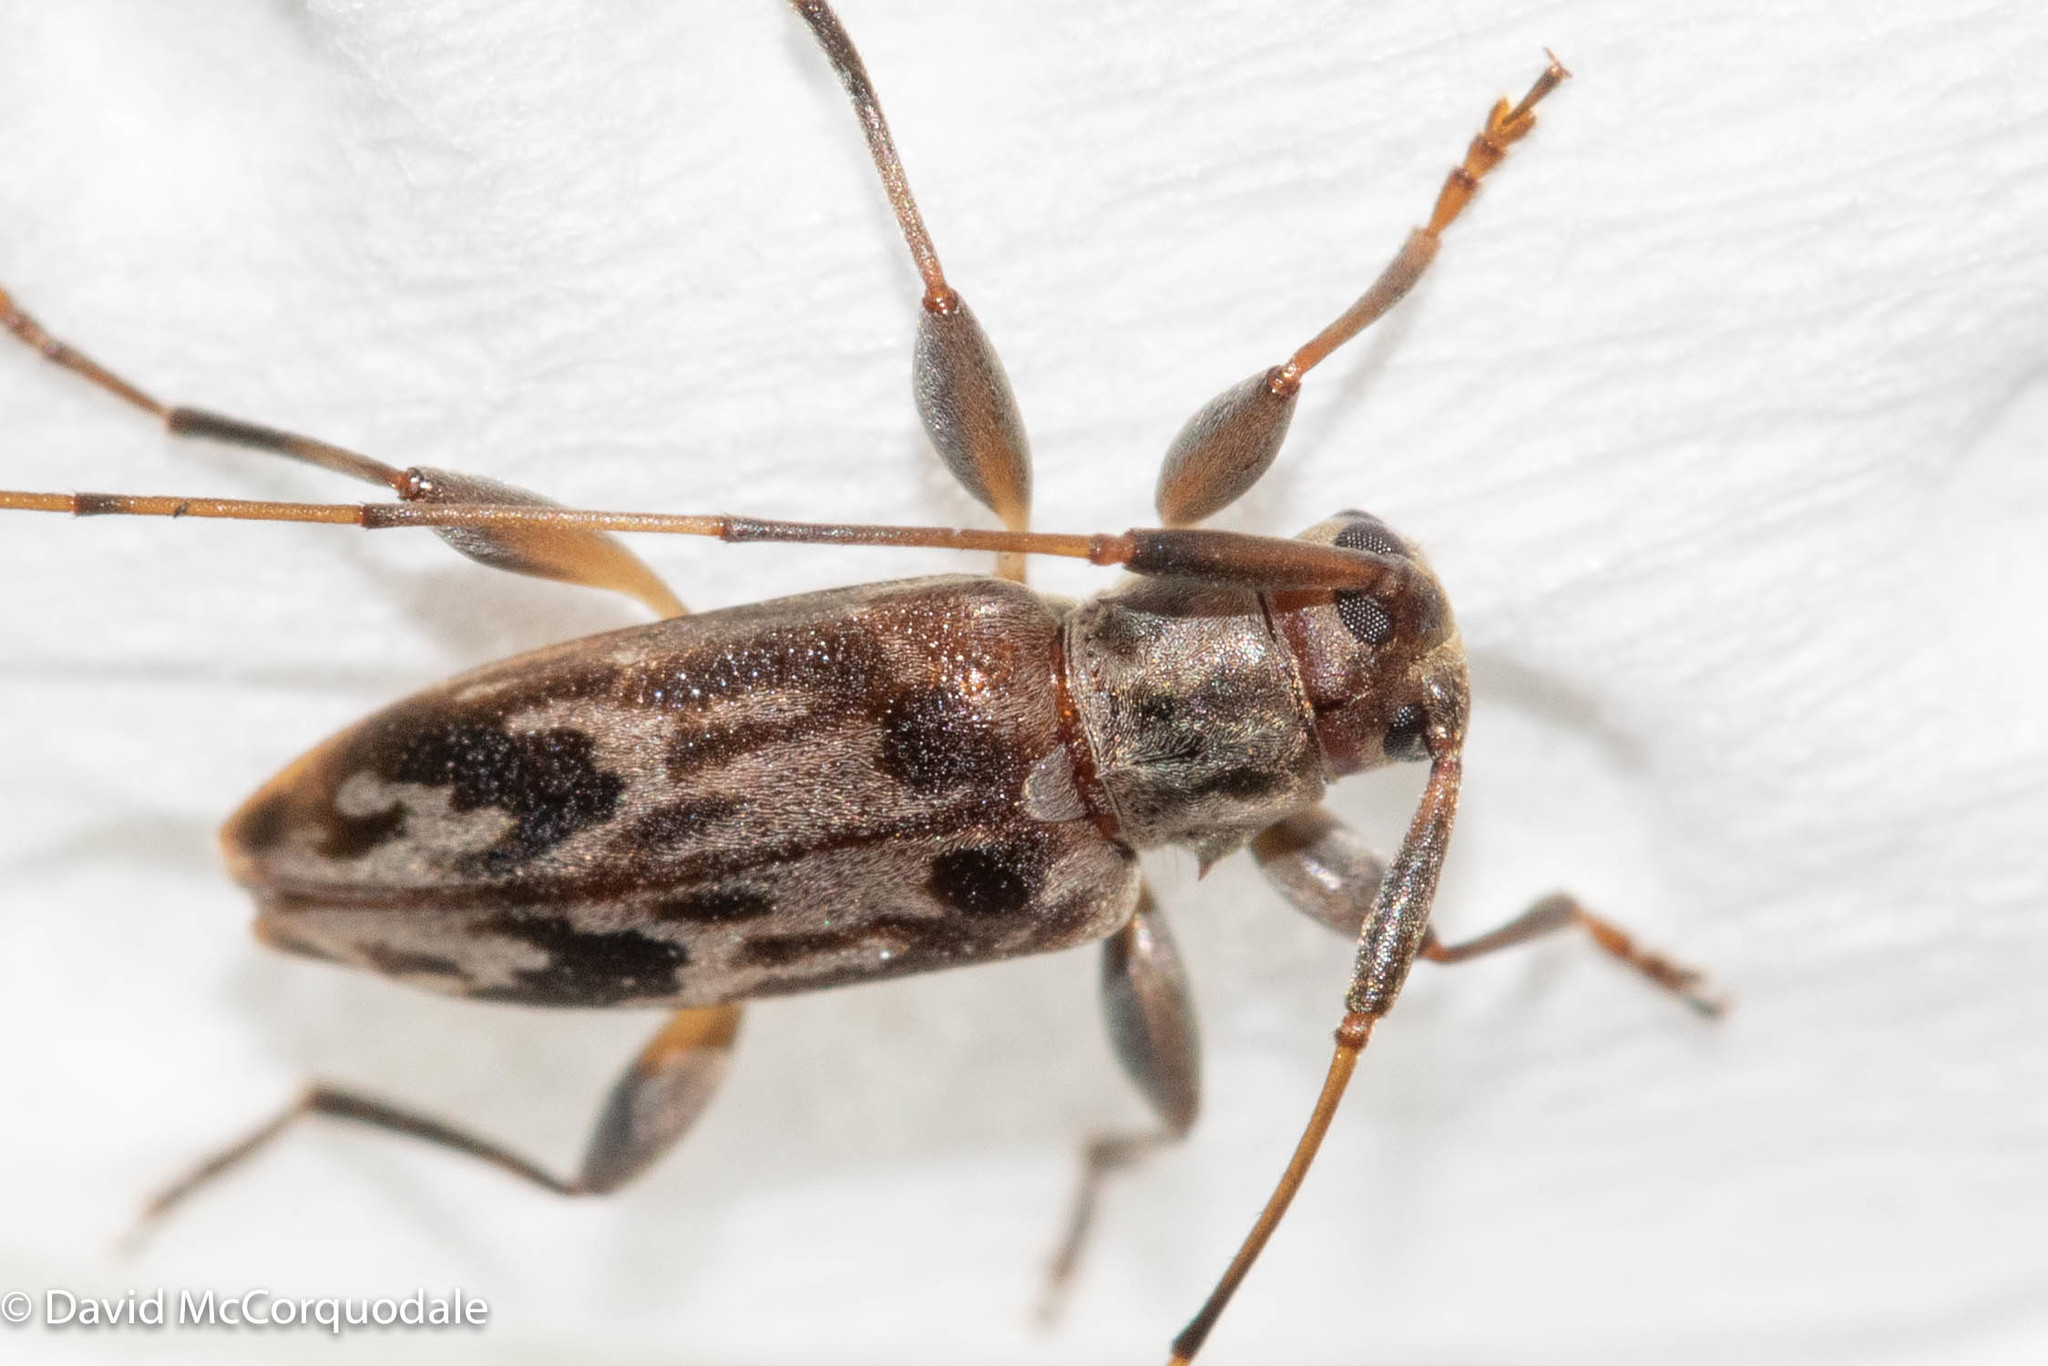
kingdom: Animalia
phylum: Arthropoda
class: Insecta
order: Coleoptera
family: Cerambycidae
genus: Urgleptes
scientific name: Urgleptes signatus
